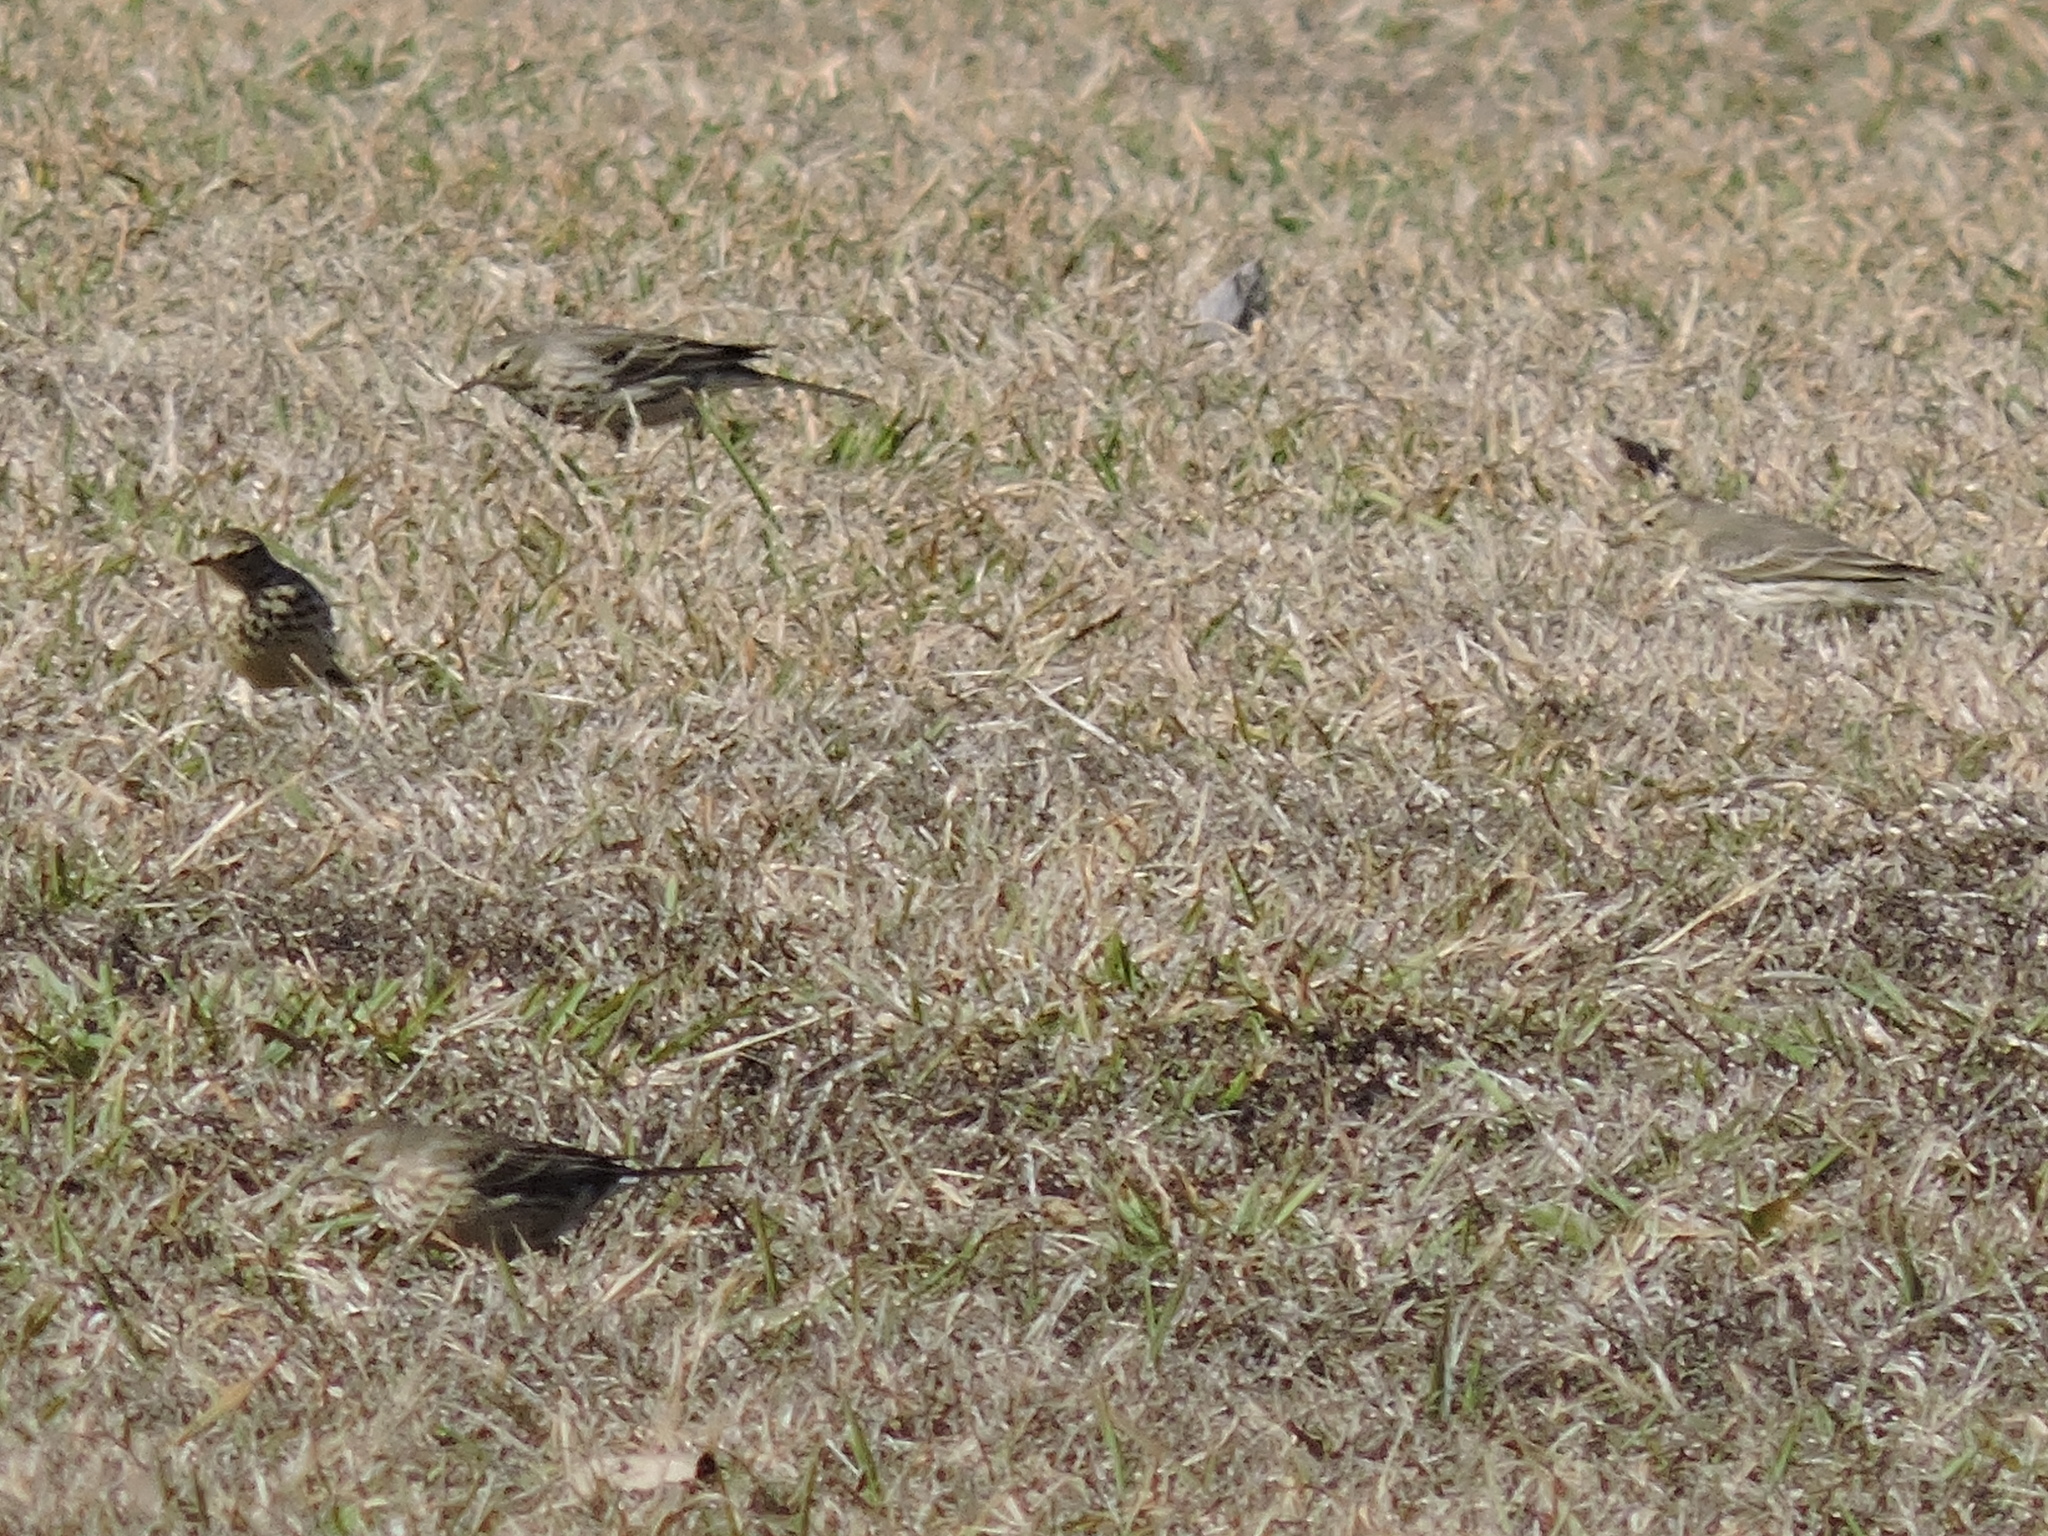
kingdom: Animalia
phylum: Chordata
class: Aves
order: Passeriformes
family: Motacillidae
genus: Anthus
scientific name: Anthus rubescens
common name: Buff-bellied pipit
